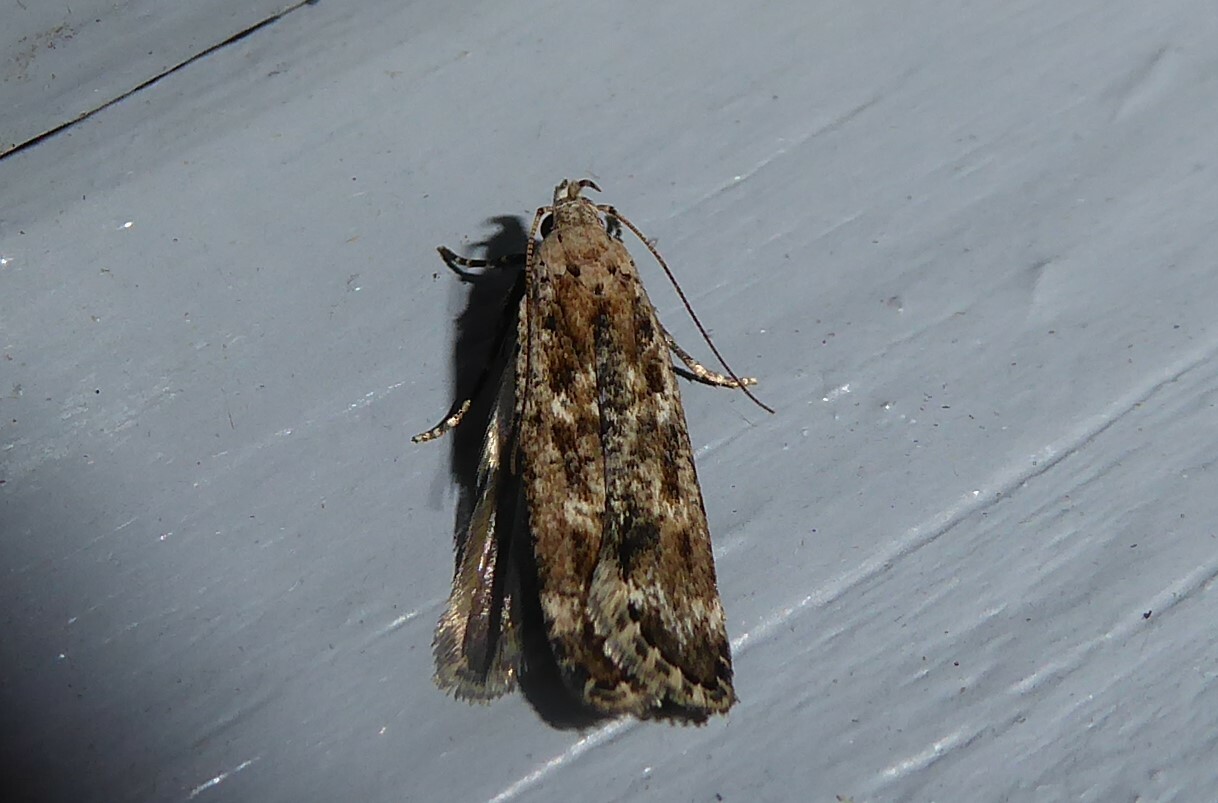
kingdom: Animalia
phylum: Arthropoda
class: Insecta
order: Lepidoptera
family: Gelechiidae
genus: Anisoplaca
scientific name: Anisoplaca achyrota
